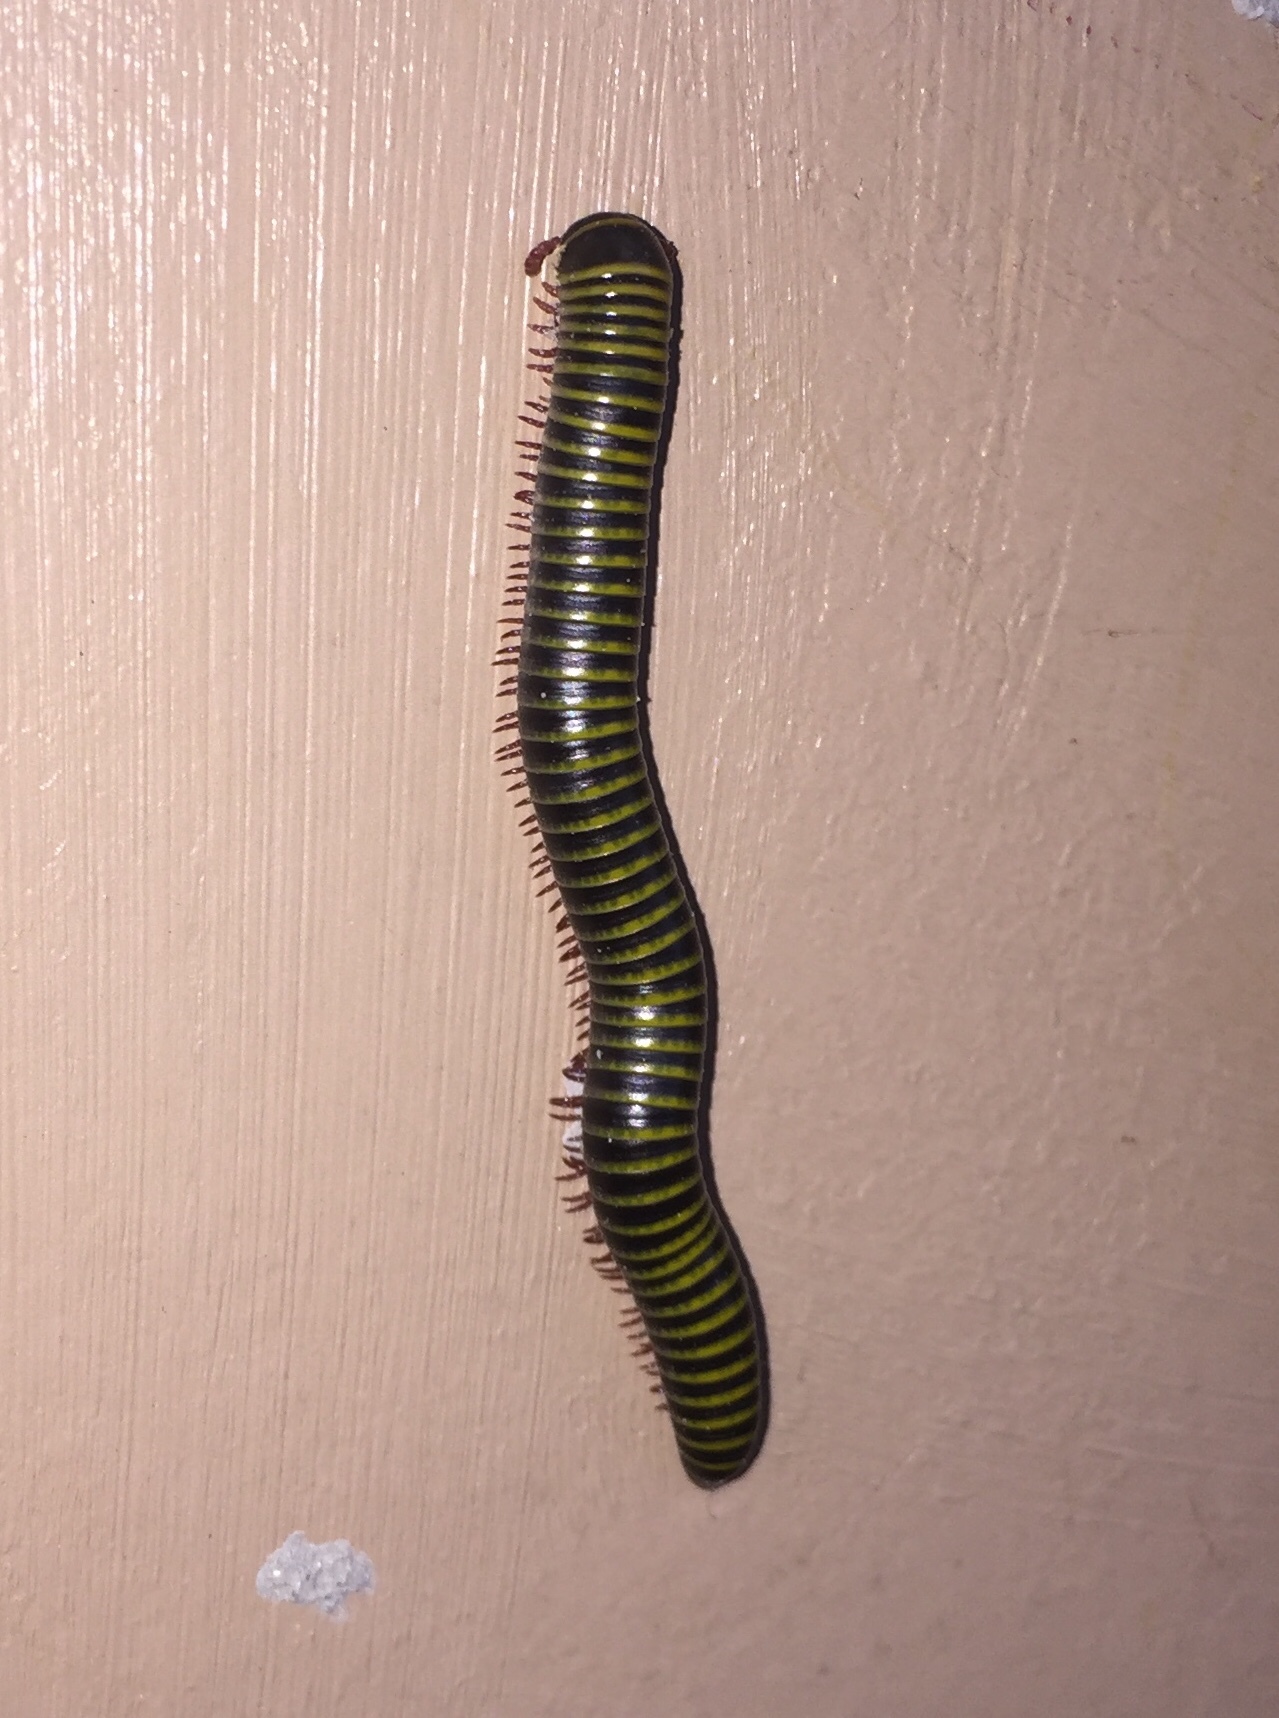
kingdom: Animalia
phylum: Arthropoda
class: Diplopoda
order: Spirobolida
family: Rhinocricidae
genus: Anadenobolus
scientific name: Anadenobolus monilicornis
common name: Caribbean millipede
